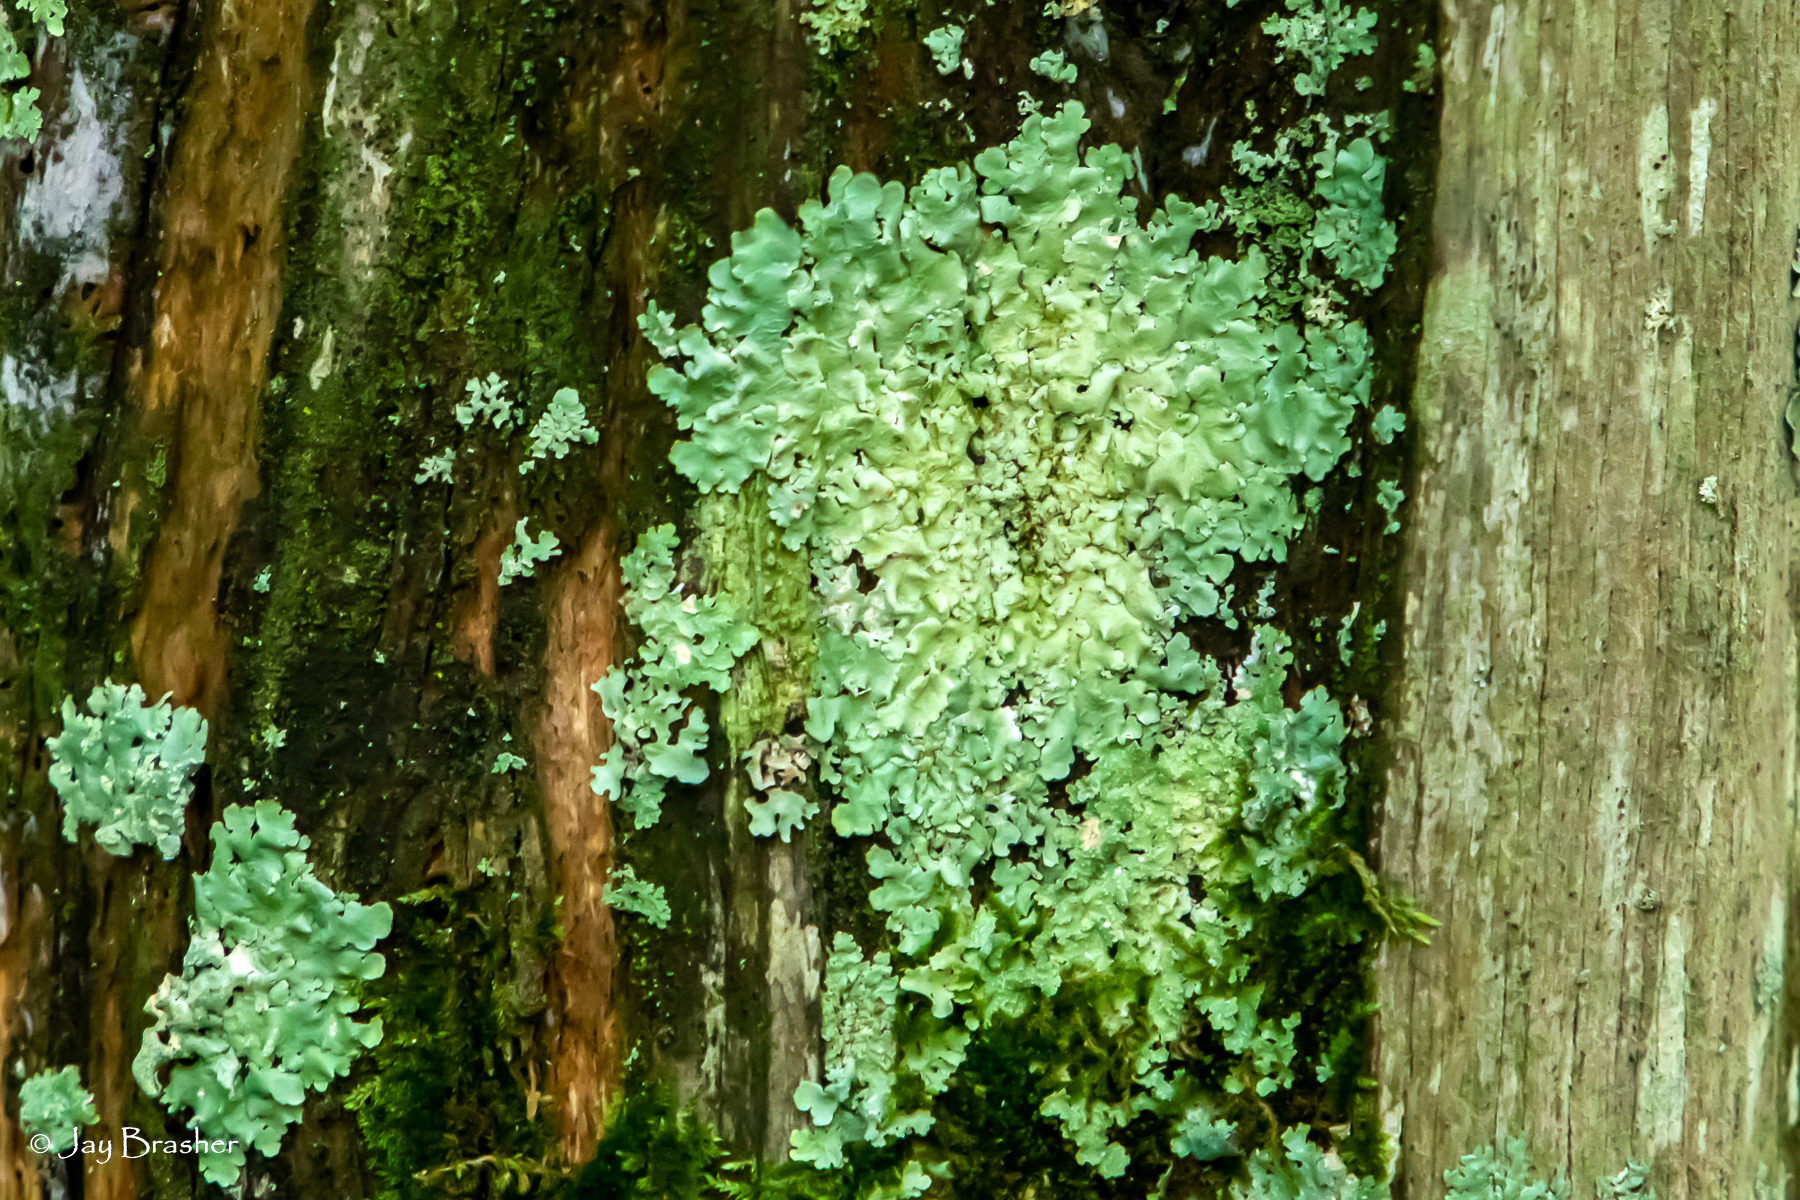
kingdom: Fungi
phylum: Ascomycota
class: Lecanoromycetes
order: Lecanorales
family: Parmeliaceae
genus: Flavoparmelia
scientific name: Flavoparmelia caperata
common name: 40-mile per hour lichen
